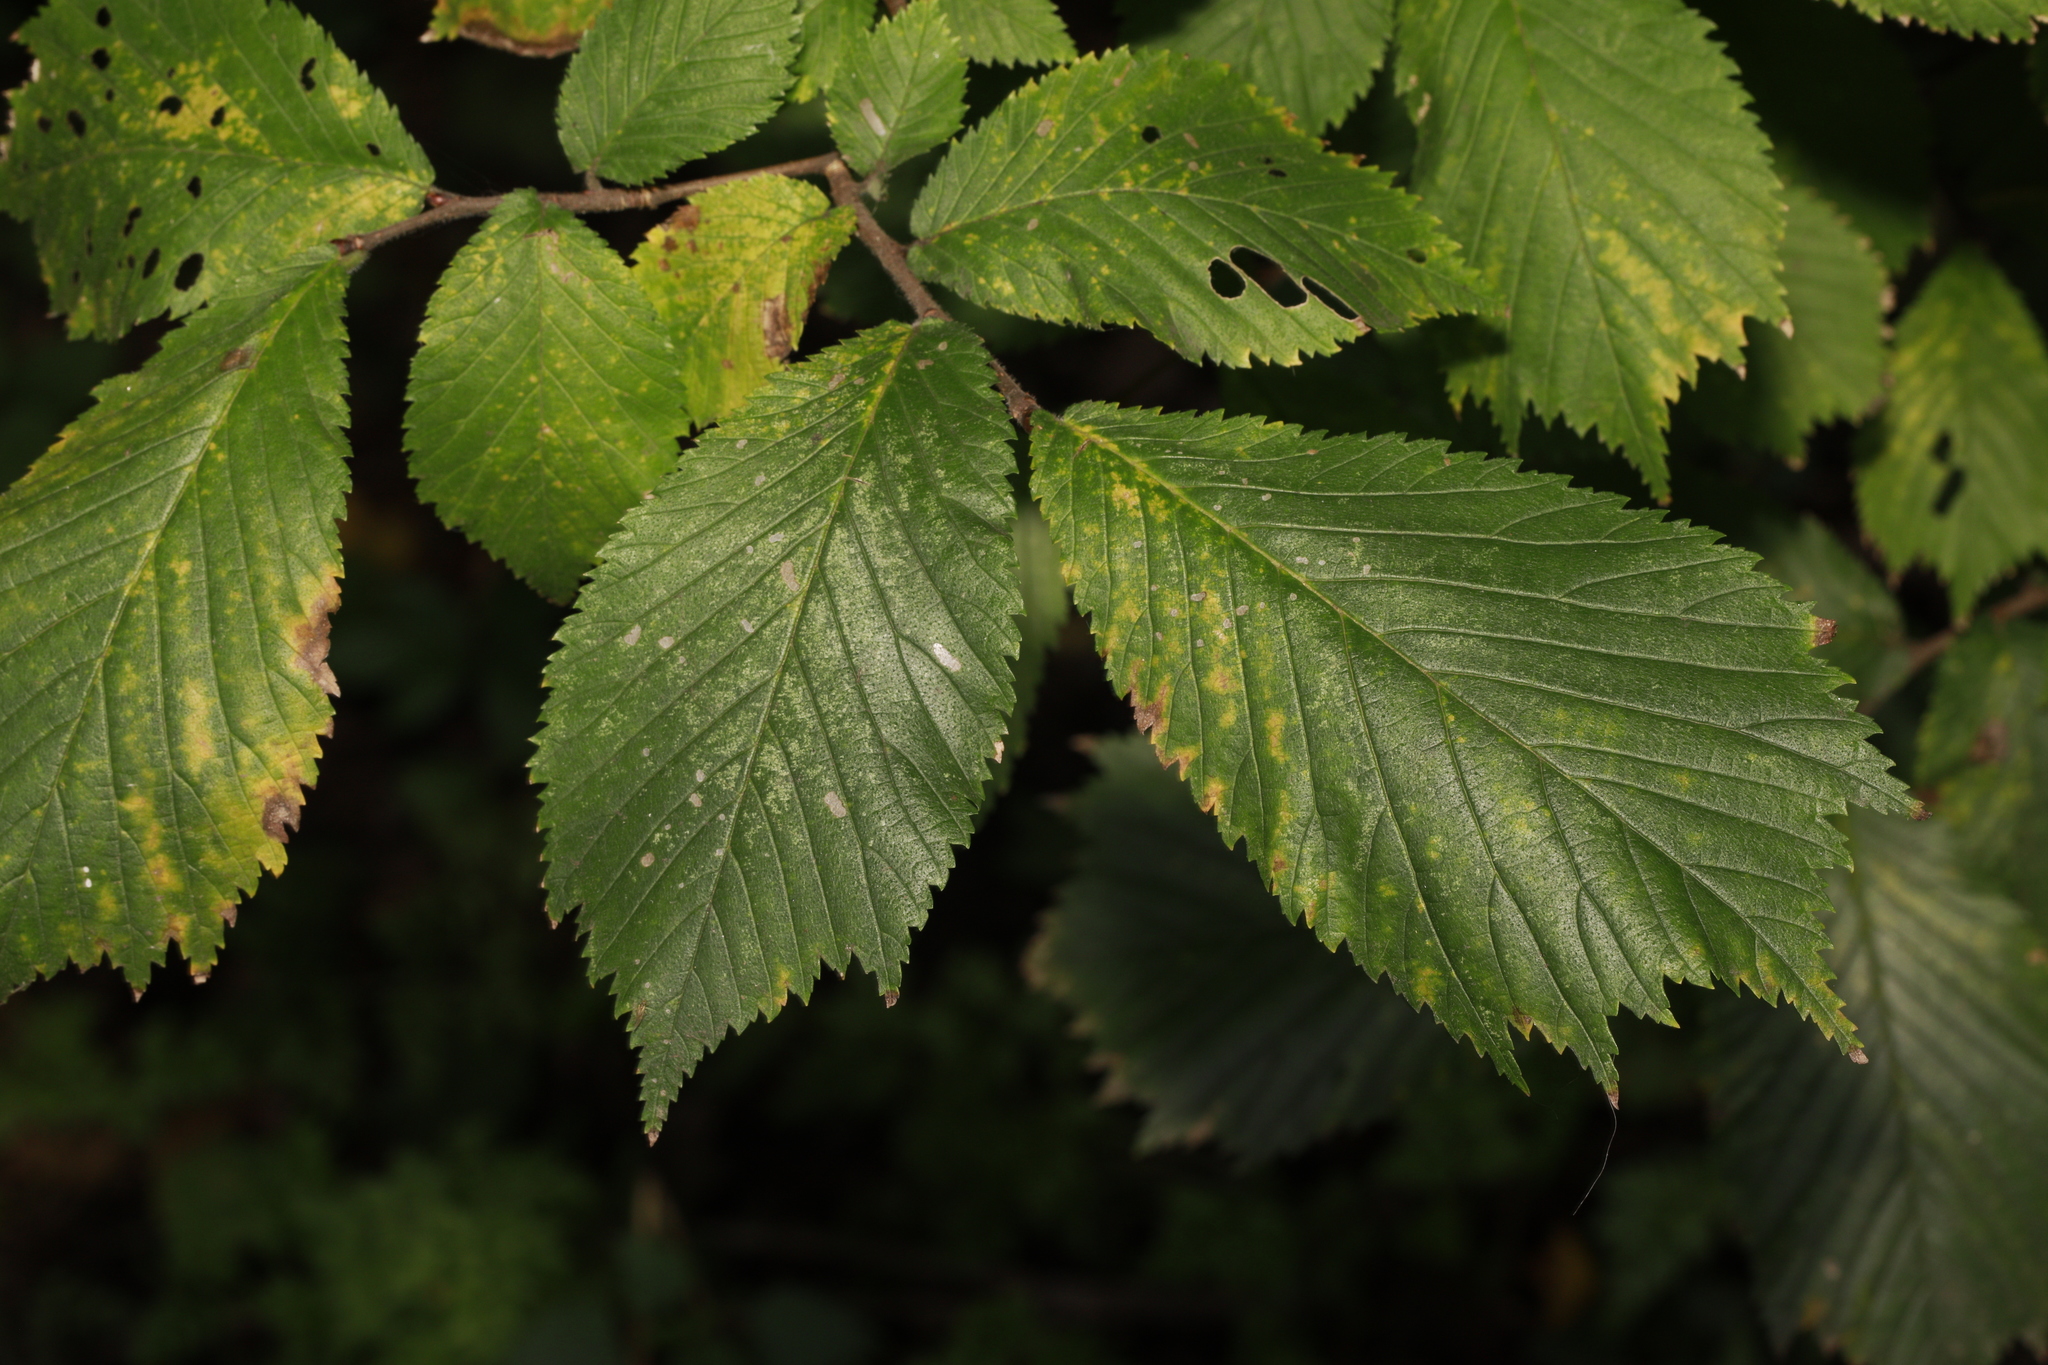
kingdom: Plantae
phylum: Tracheophyta
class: Magnoliopsida
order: Rosales
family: Ulmaceae
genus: Ulmus
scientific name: Ulmus glabra
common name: Wych elm
